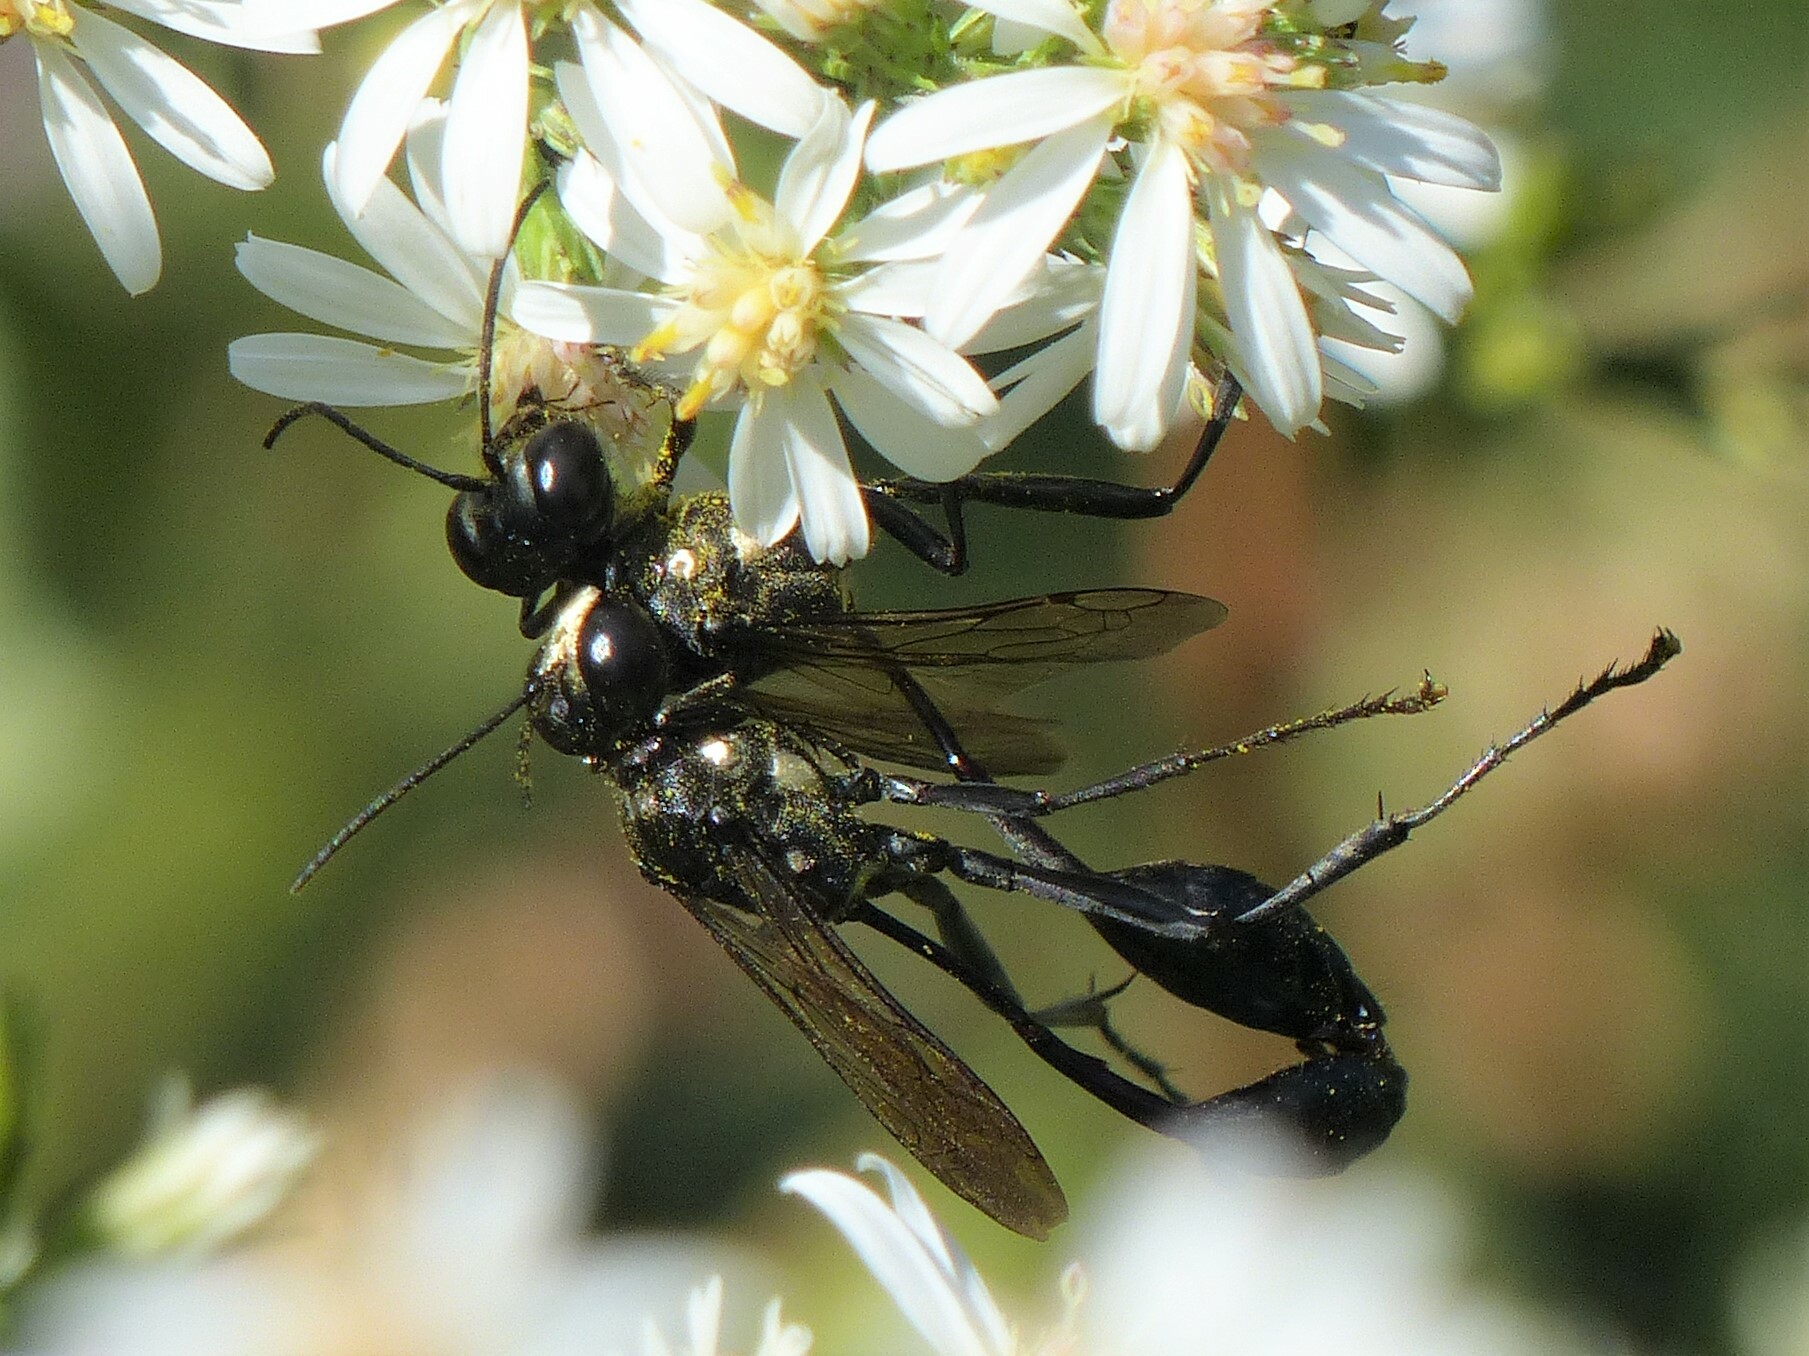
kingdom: Animalia
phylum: Arthropoda
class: Insecta
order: Hymenoptera
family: Sphecidae
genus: Eremnophila
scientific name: Eremnophila aureonotata
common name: Gold-marked thread-waisted wasp
